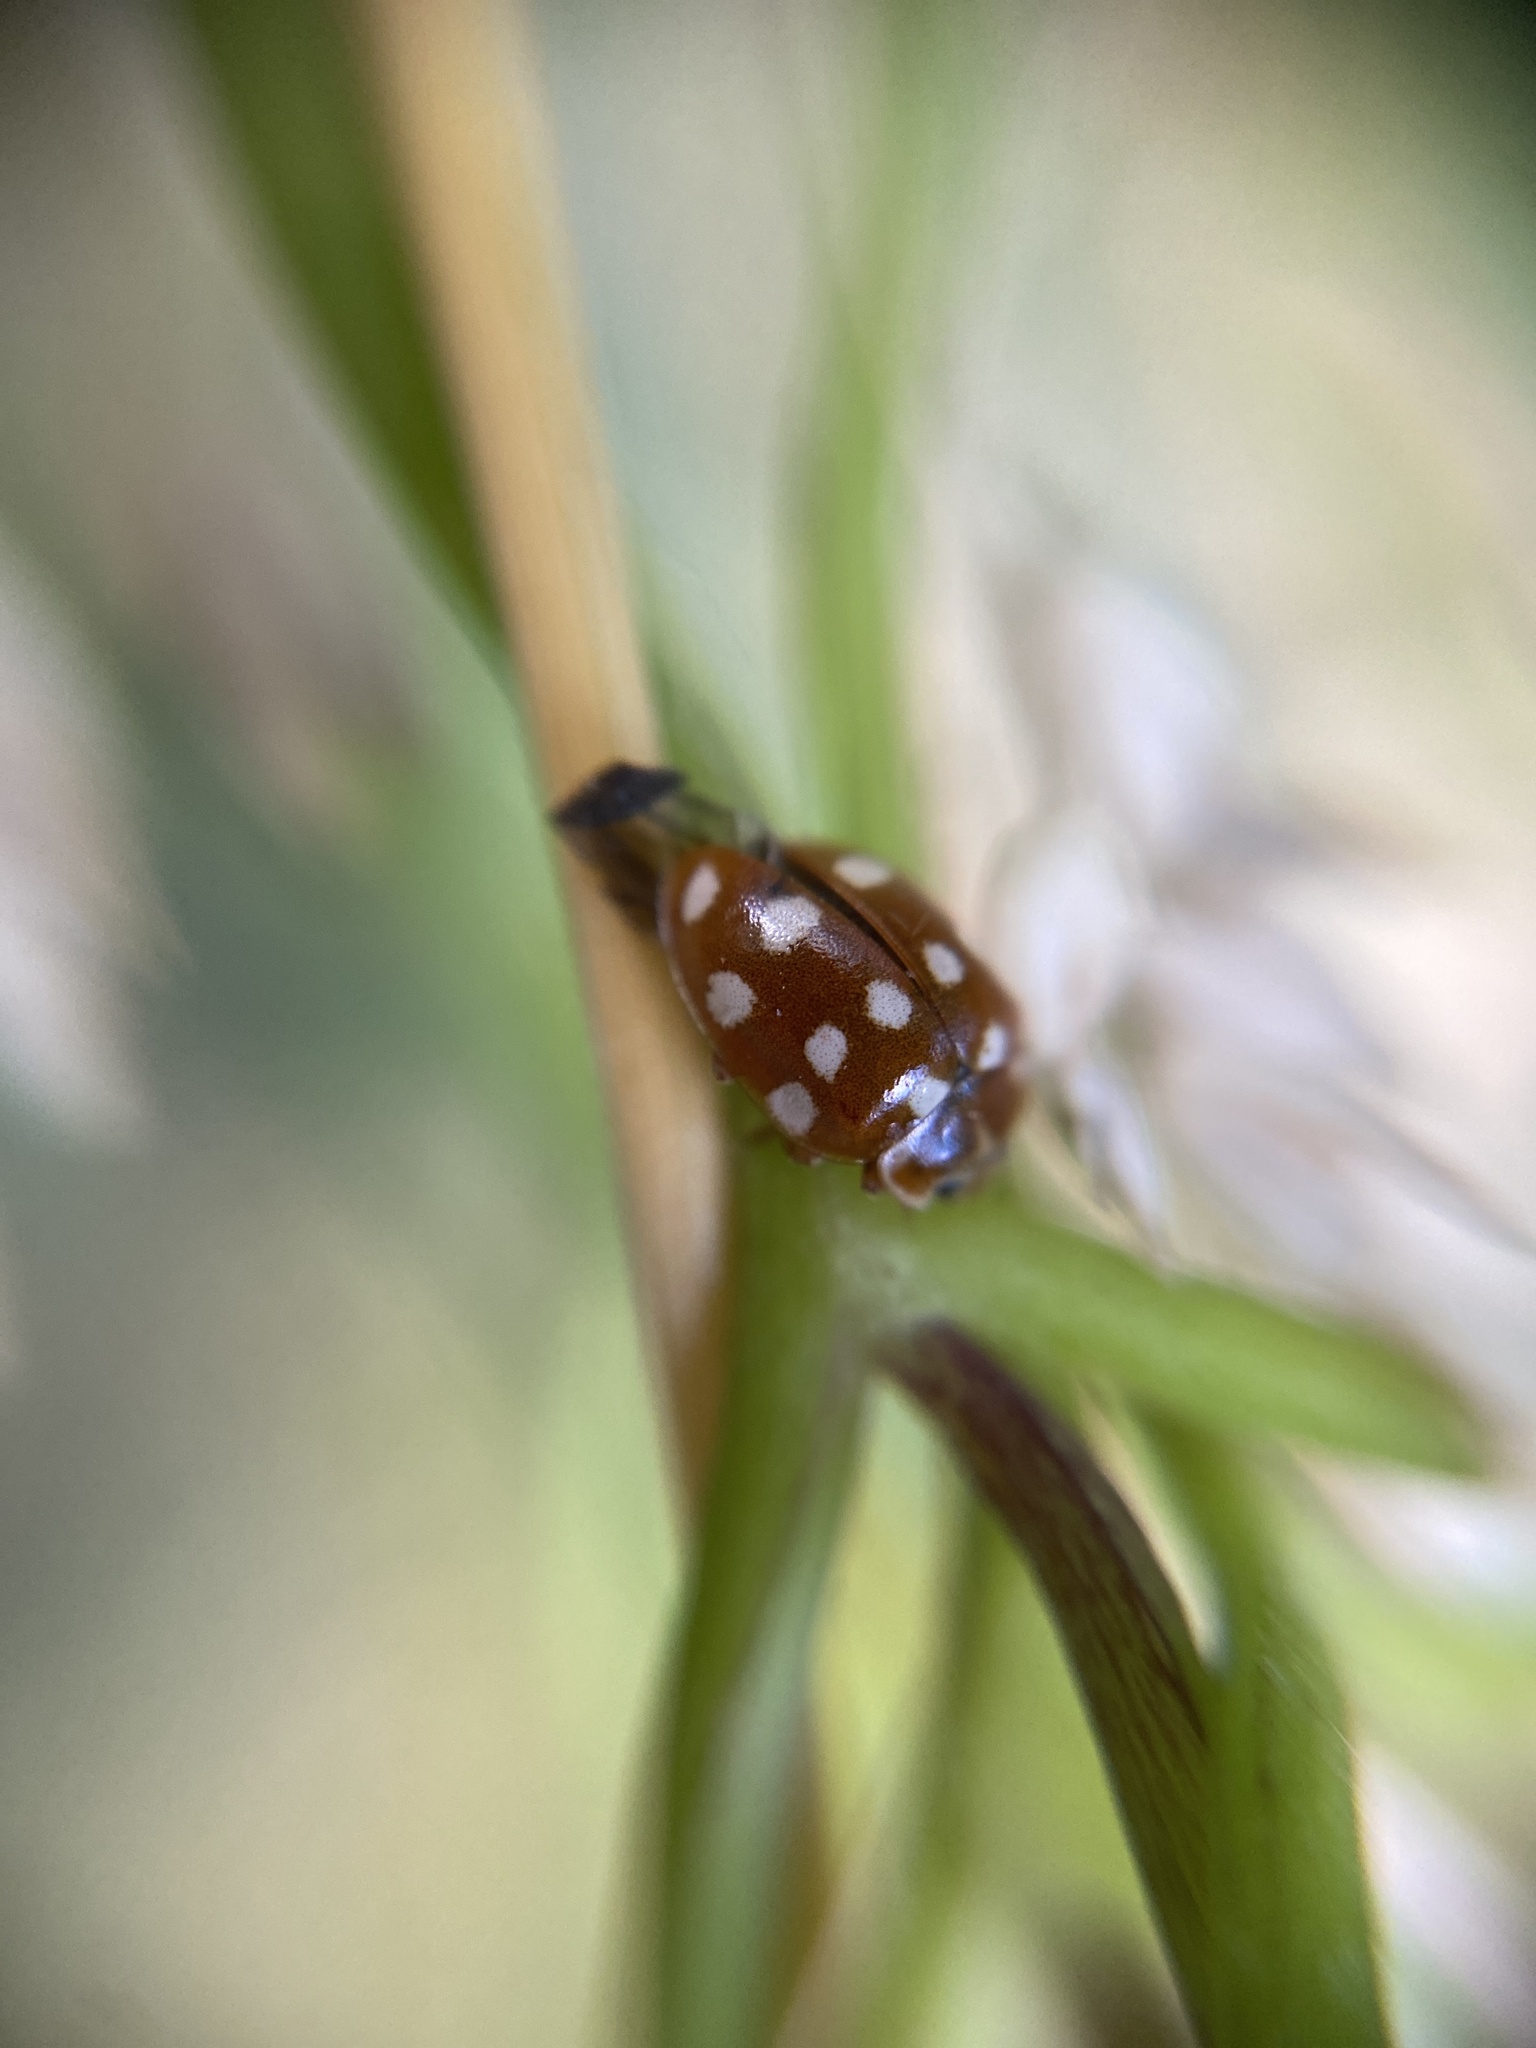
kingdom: Animalia
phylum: Arthropoda
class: Insecta
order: Coleoptera
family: Coccinellidae
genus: Calvia
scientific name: Calvia quatuordecimguttata
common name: Cream-spot ladybird
